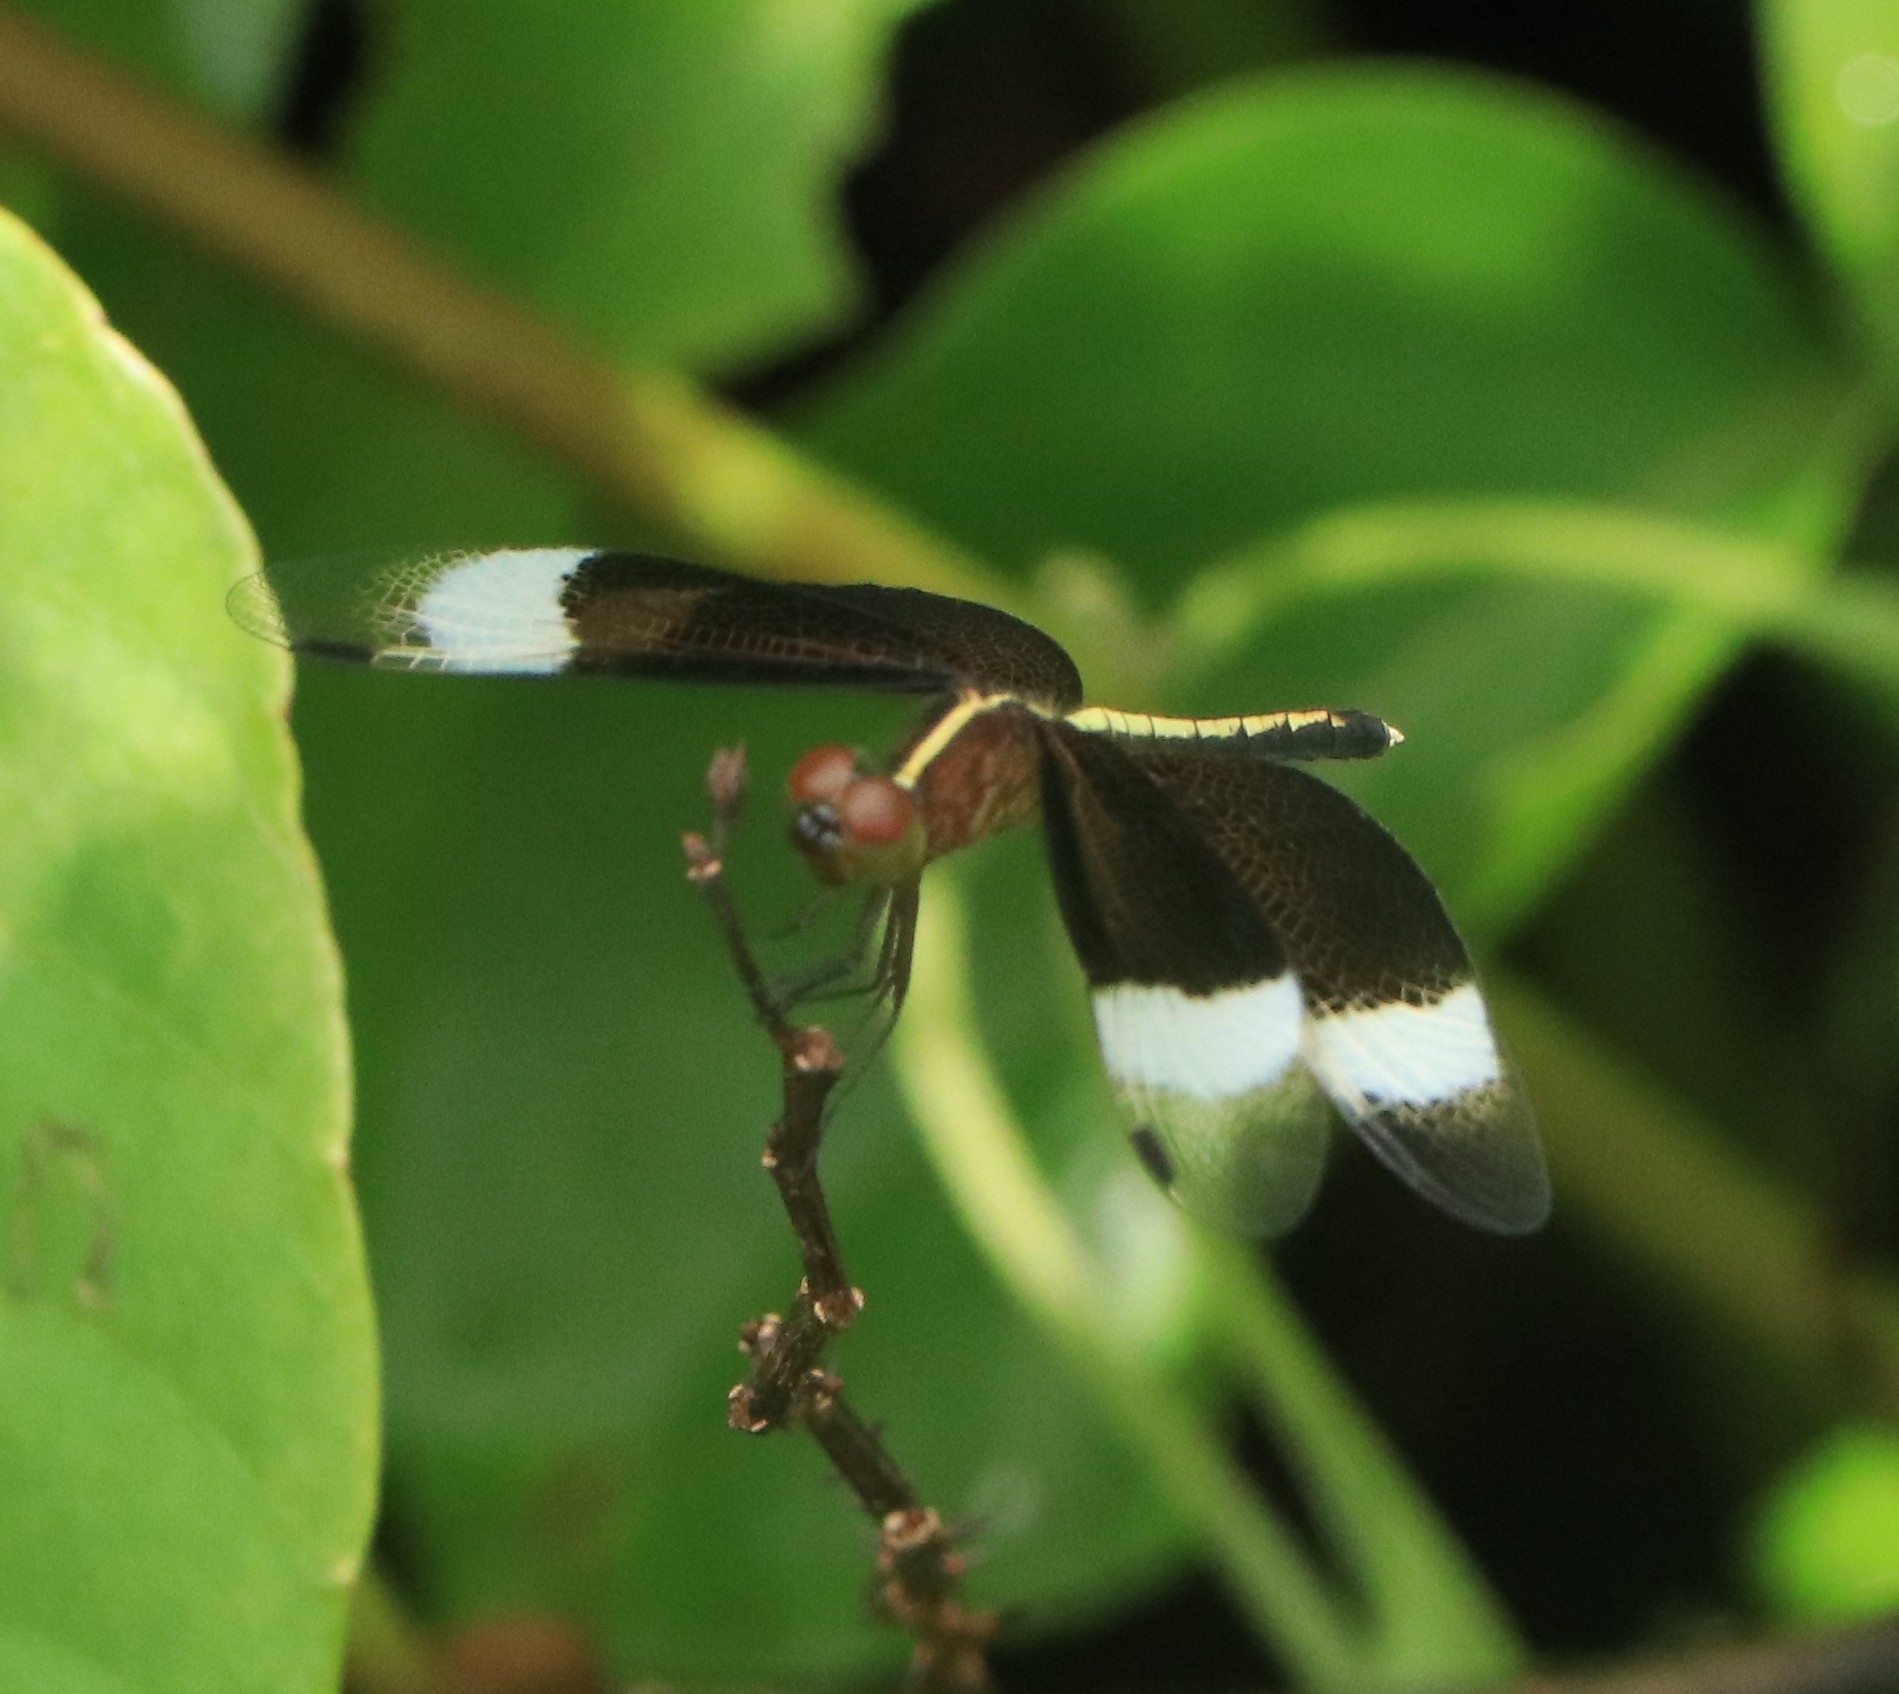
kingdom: Animalia
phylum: Arthropoda
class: Insecta
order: Odonata
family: Libellulidae
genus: Neurothemis
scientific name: Neurothemis tullia
